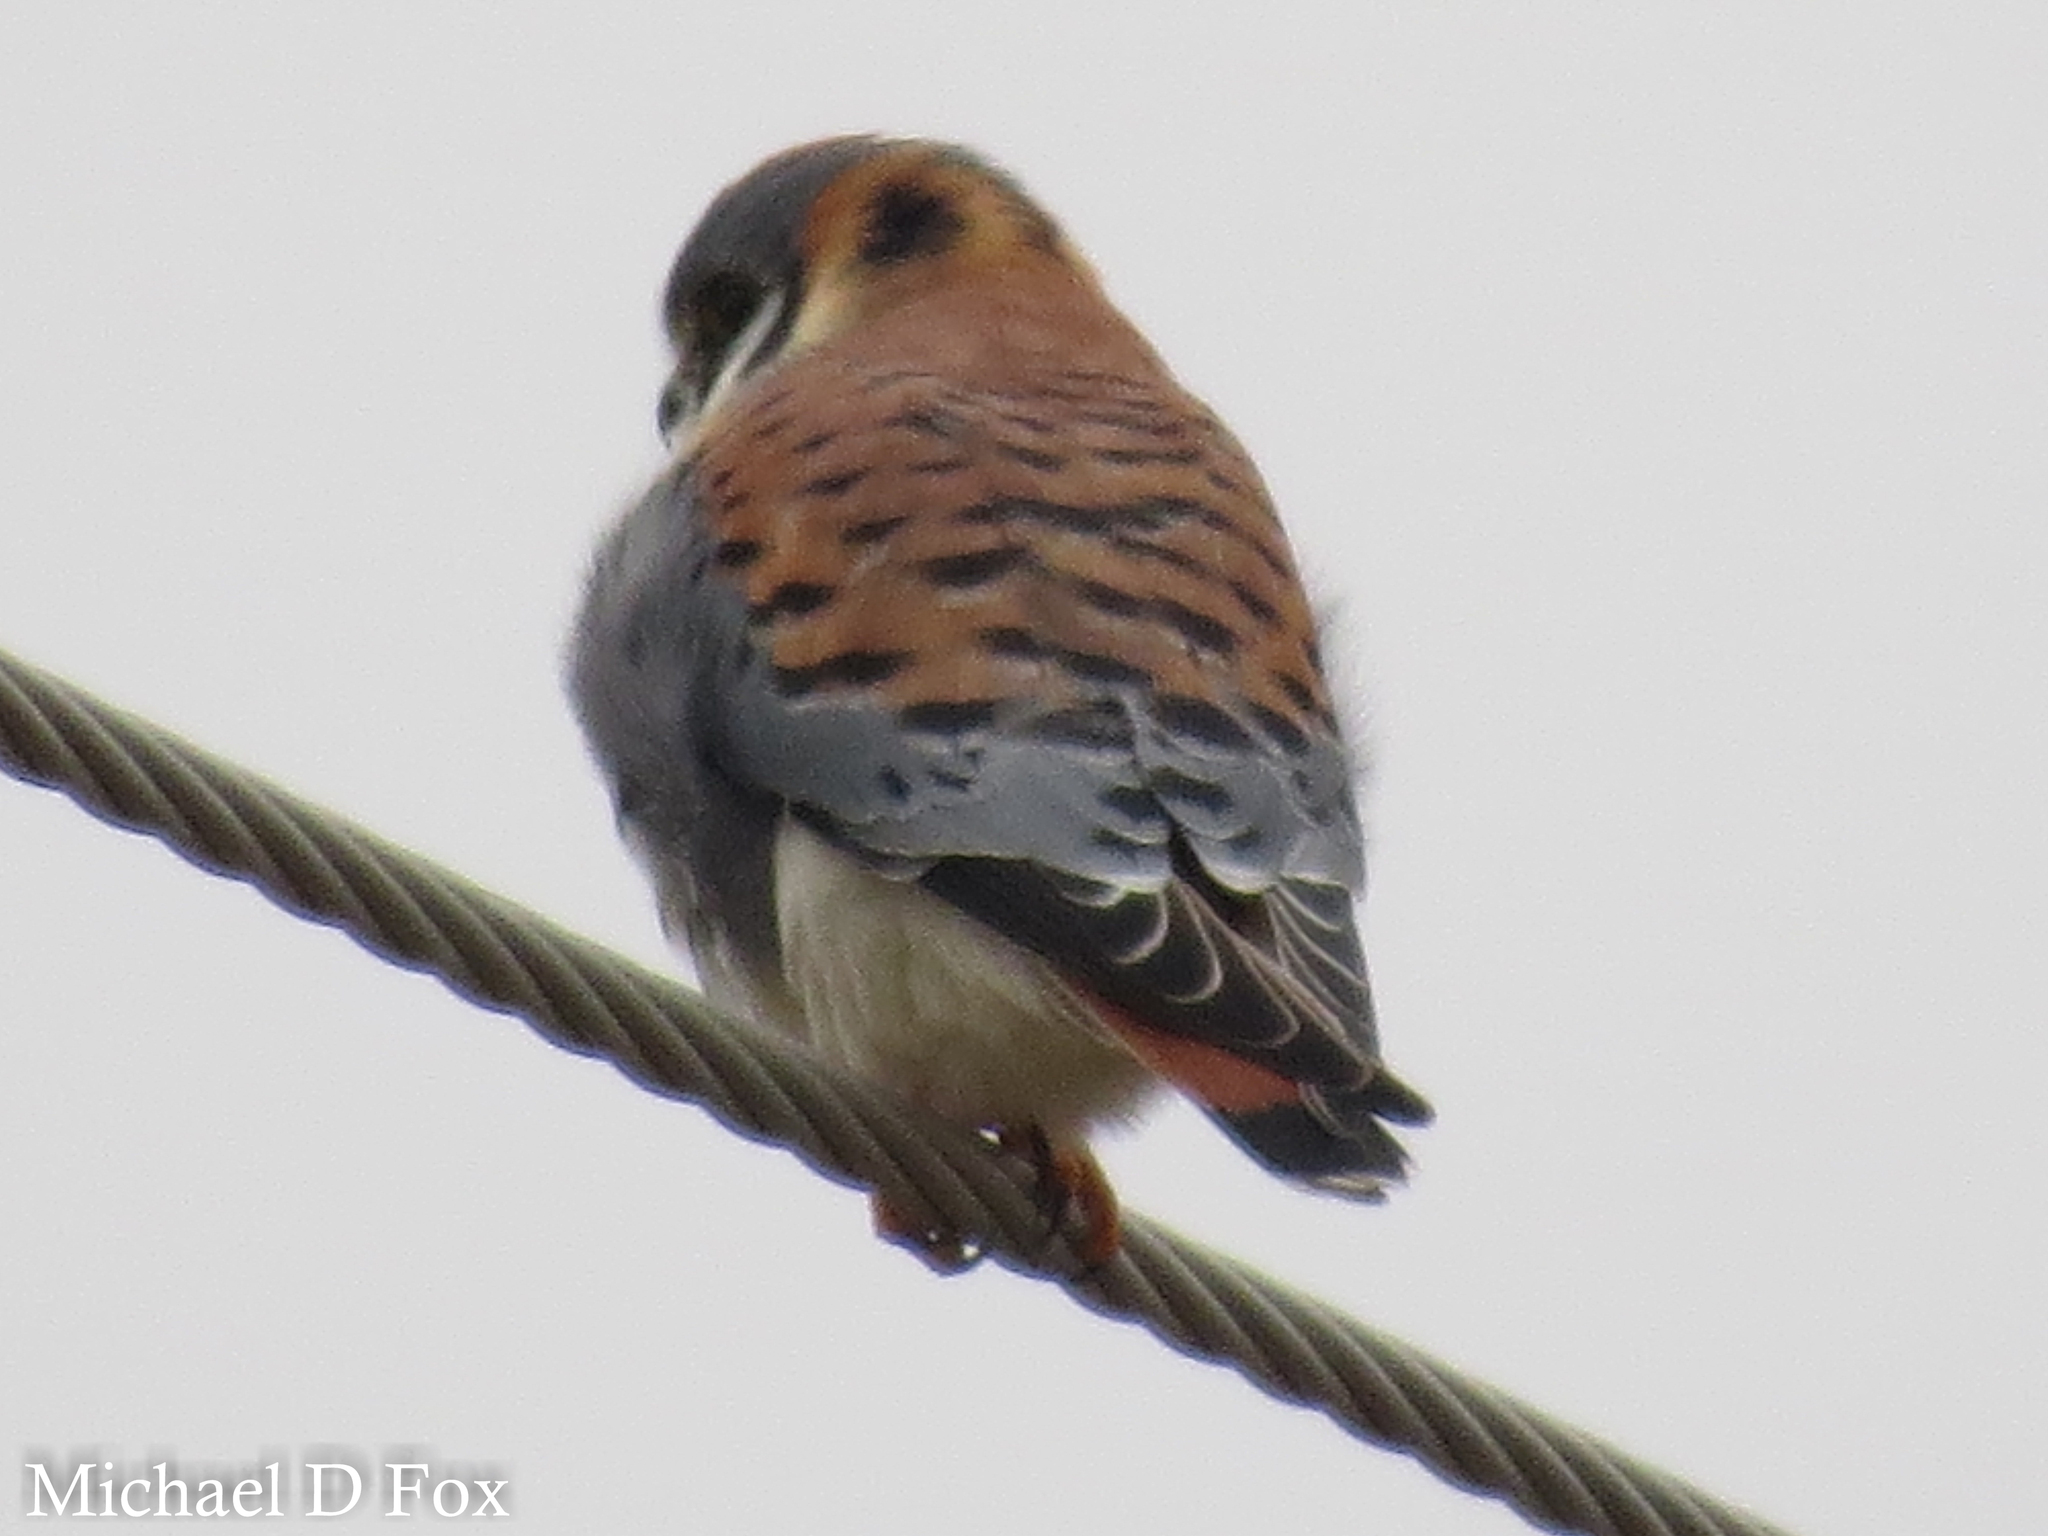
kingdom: Animalia
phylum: Chordata
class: Aves
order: Falconiformes
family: Falconidae
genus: Falco
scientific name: Falco sparverius
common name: American kestrel
